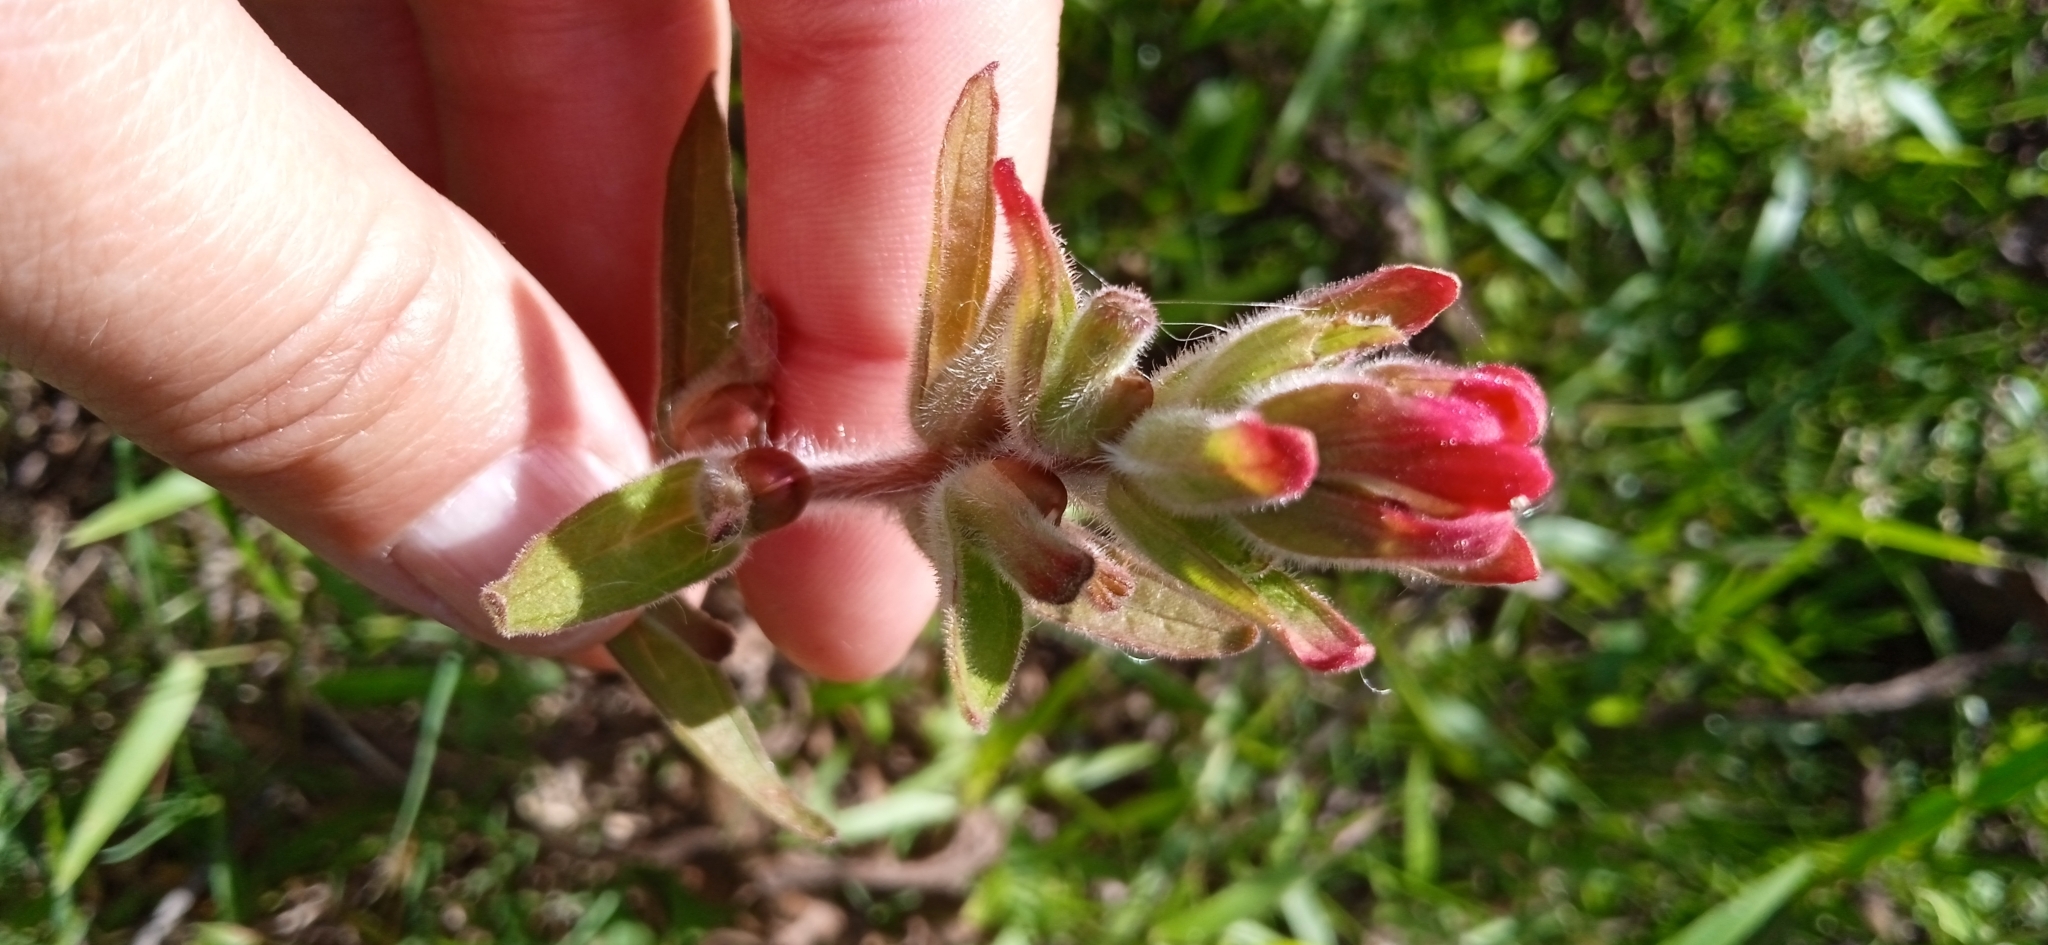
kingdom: Plantae
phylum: Tracheophyta
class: Magnoliopsida
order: Lamiales
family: Orobanchaceae
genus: Castilleja
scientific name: Castilleja arvensis
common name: Indian paintbrush
